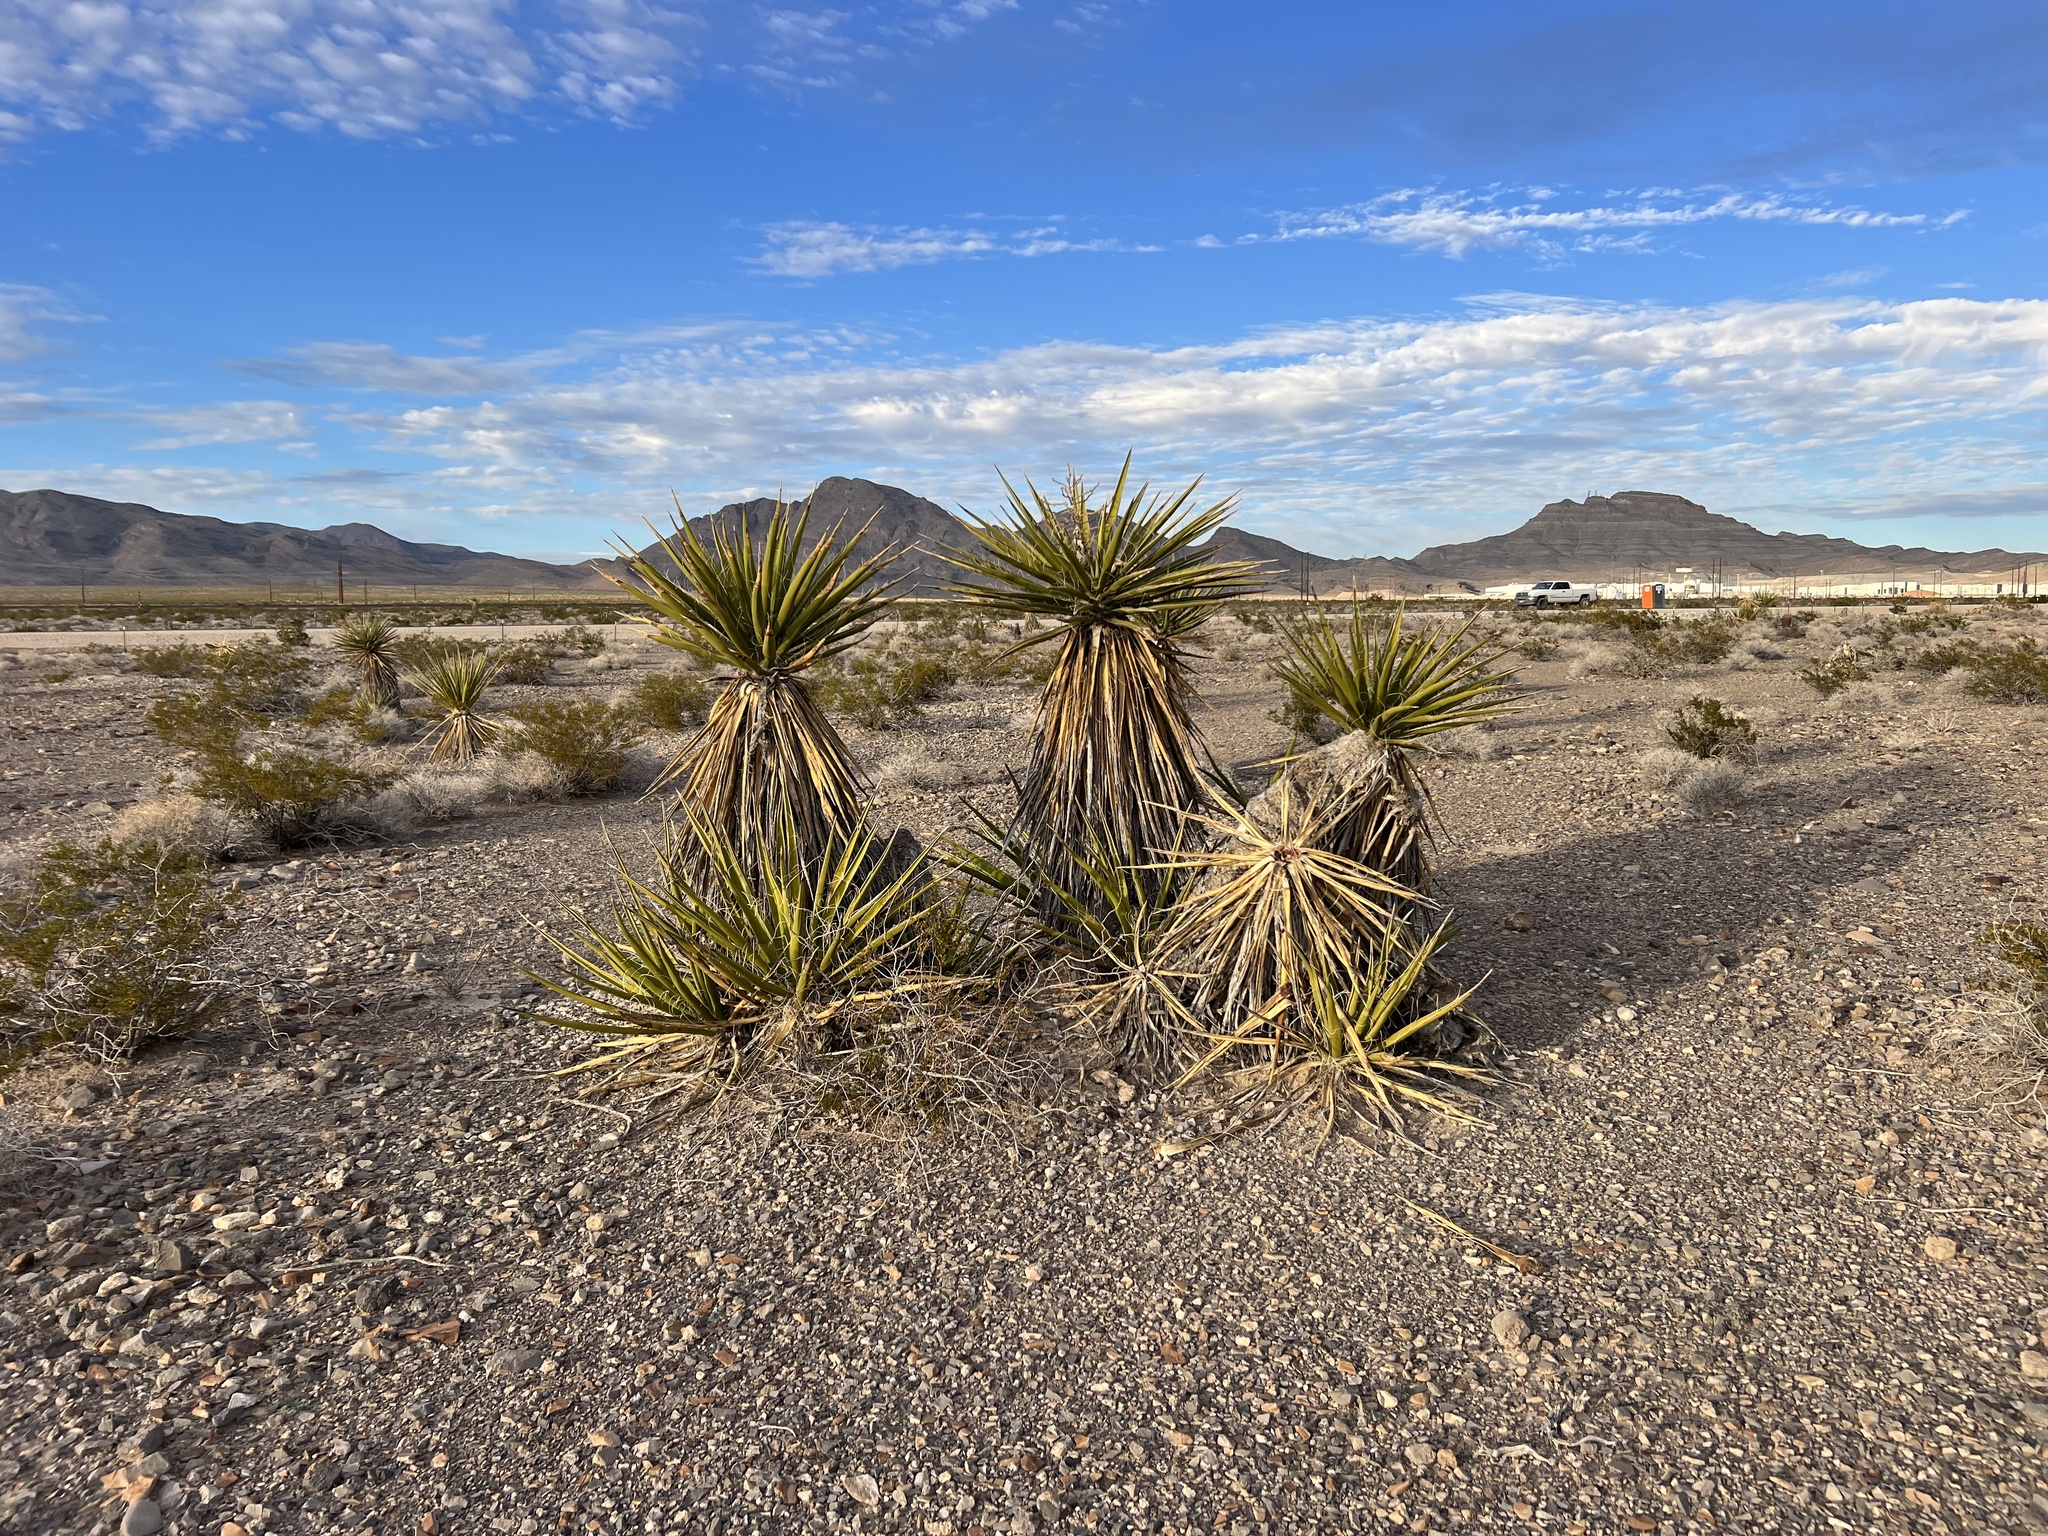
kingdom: Plantae
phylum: Tracheophyta
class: Liliopsida
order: Asparagales
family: Asparagaceae
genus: Yucca
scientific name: Yucca schidigera
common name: Mojave yucca
